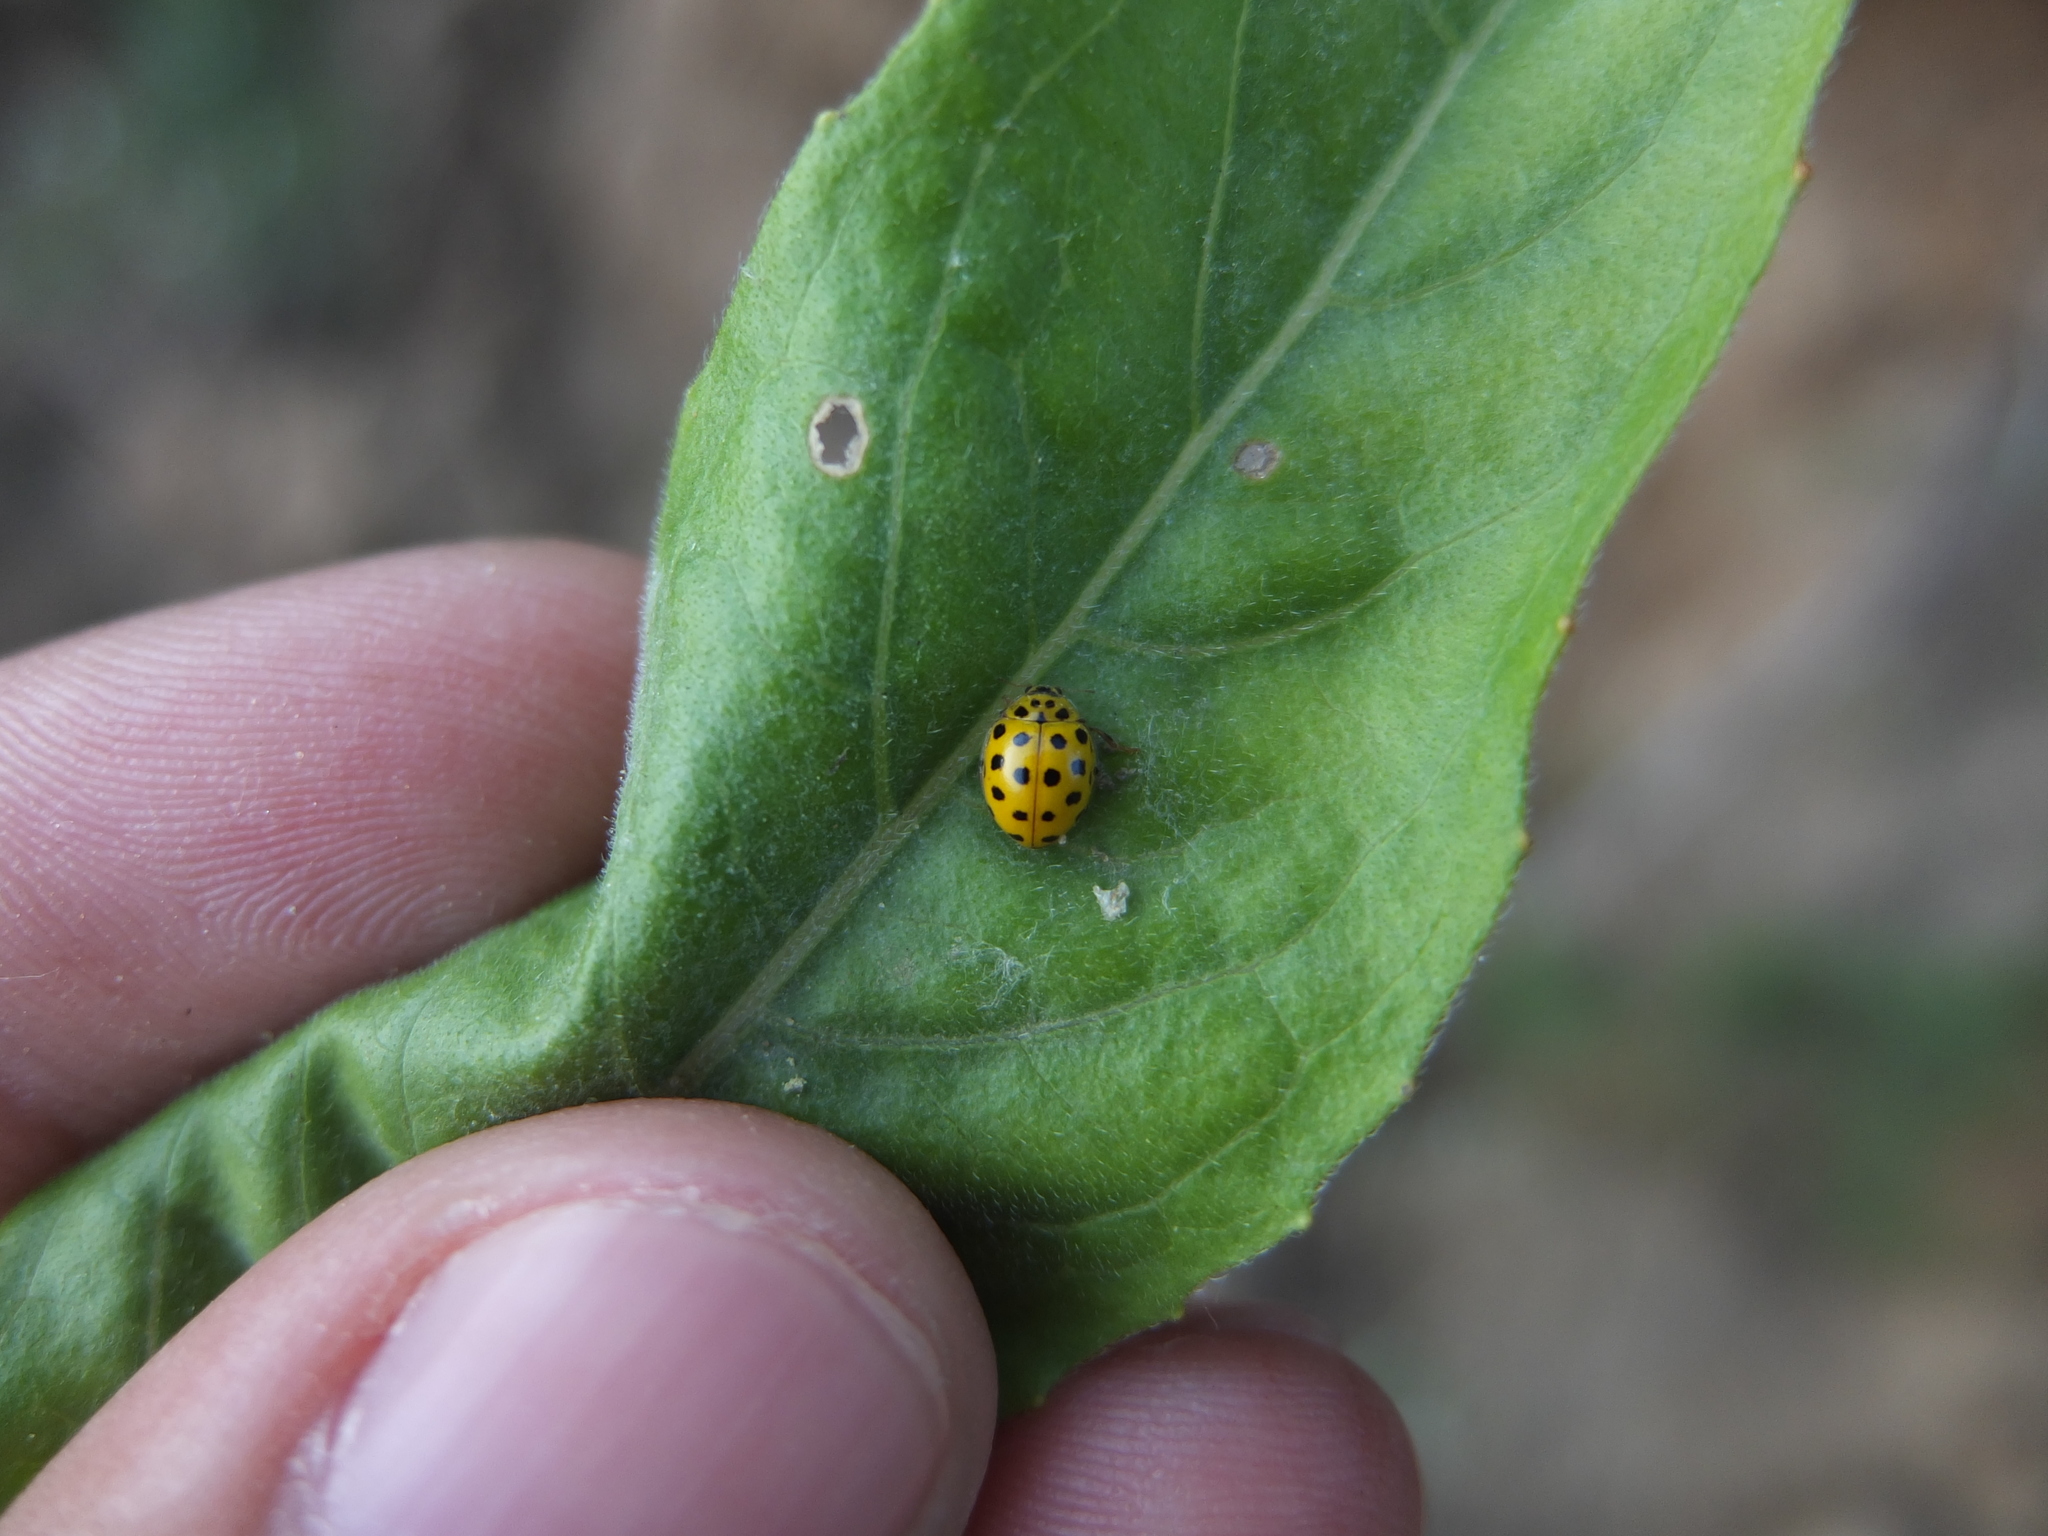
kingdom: Animalia
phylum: Arthropoda
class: Insecta
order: Coleoptera
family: Coccinellidae
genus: Psyllobora
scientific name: Psyllobora vigintiduopunctata
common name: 22-spot ladybird
